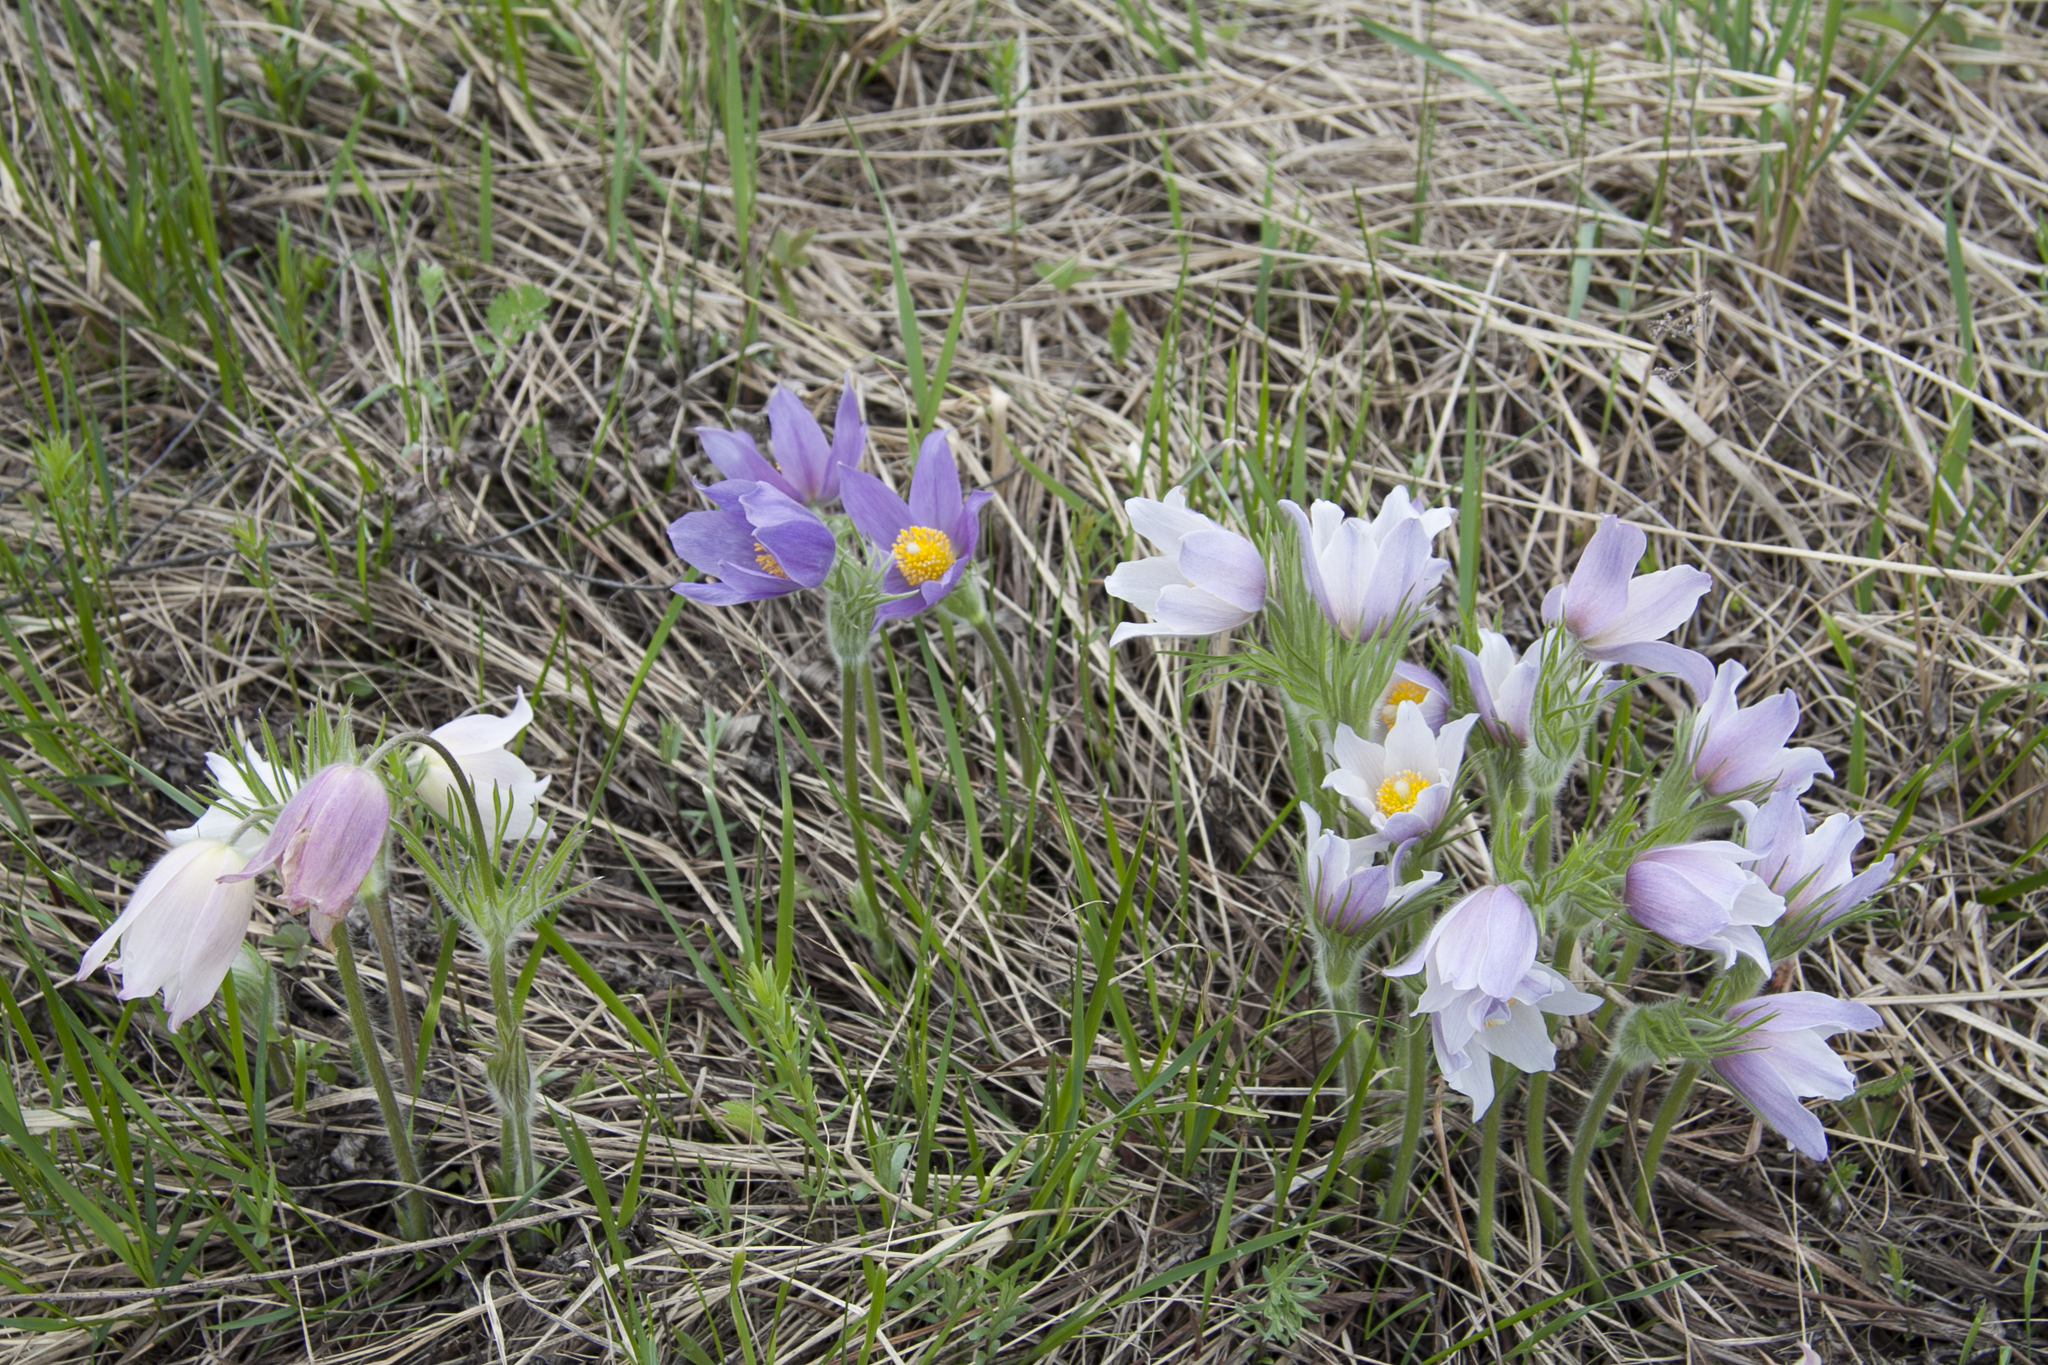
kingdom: Plantae
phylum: Tracheophyta
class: Magnoliopsida
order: Ranunculales
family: Ranunculaceae
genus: Pulsatilla
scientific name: Pulsatilla patens
